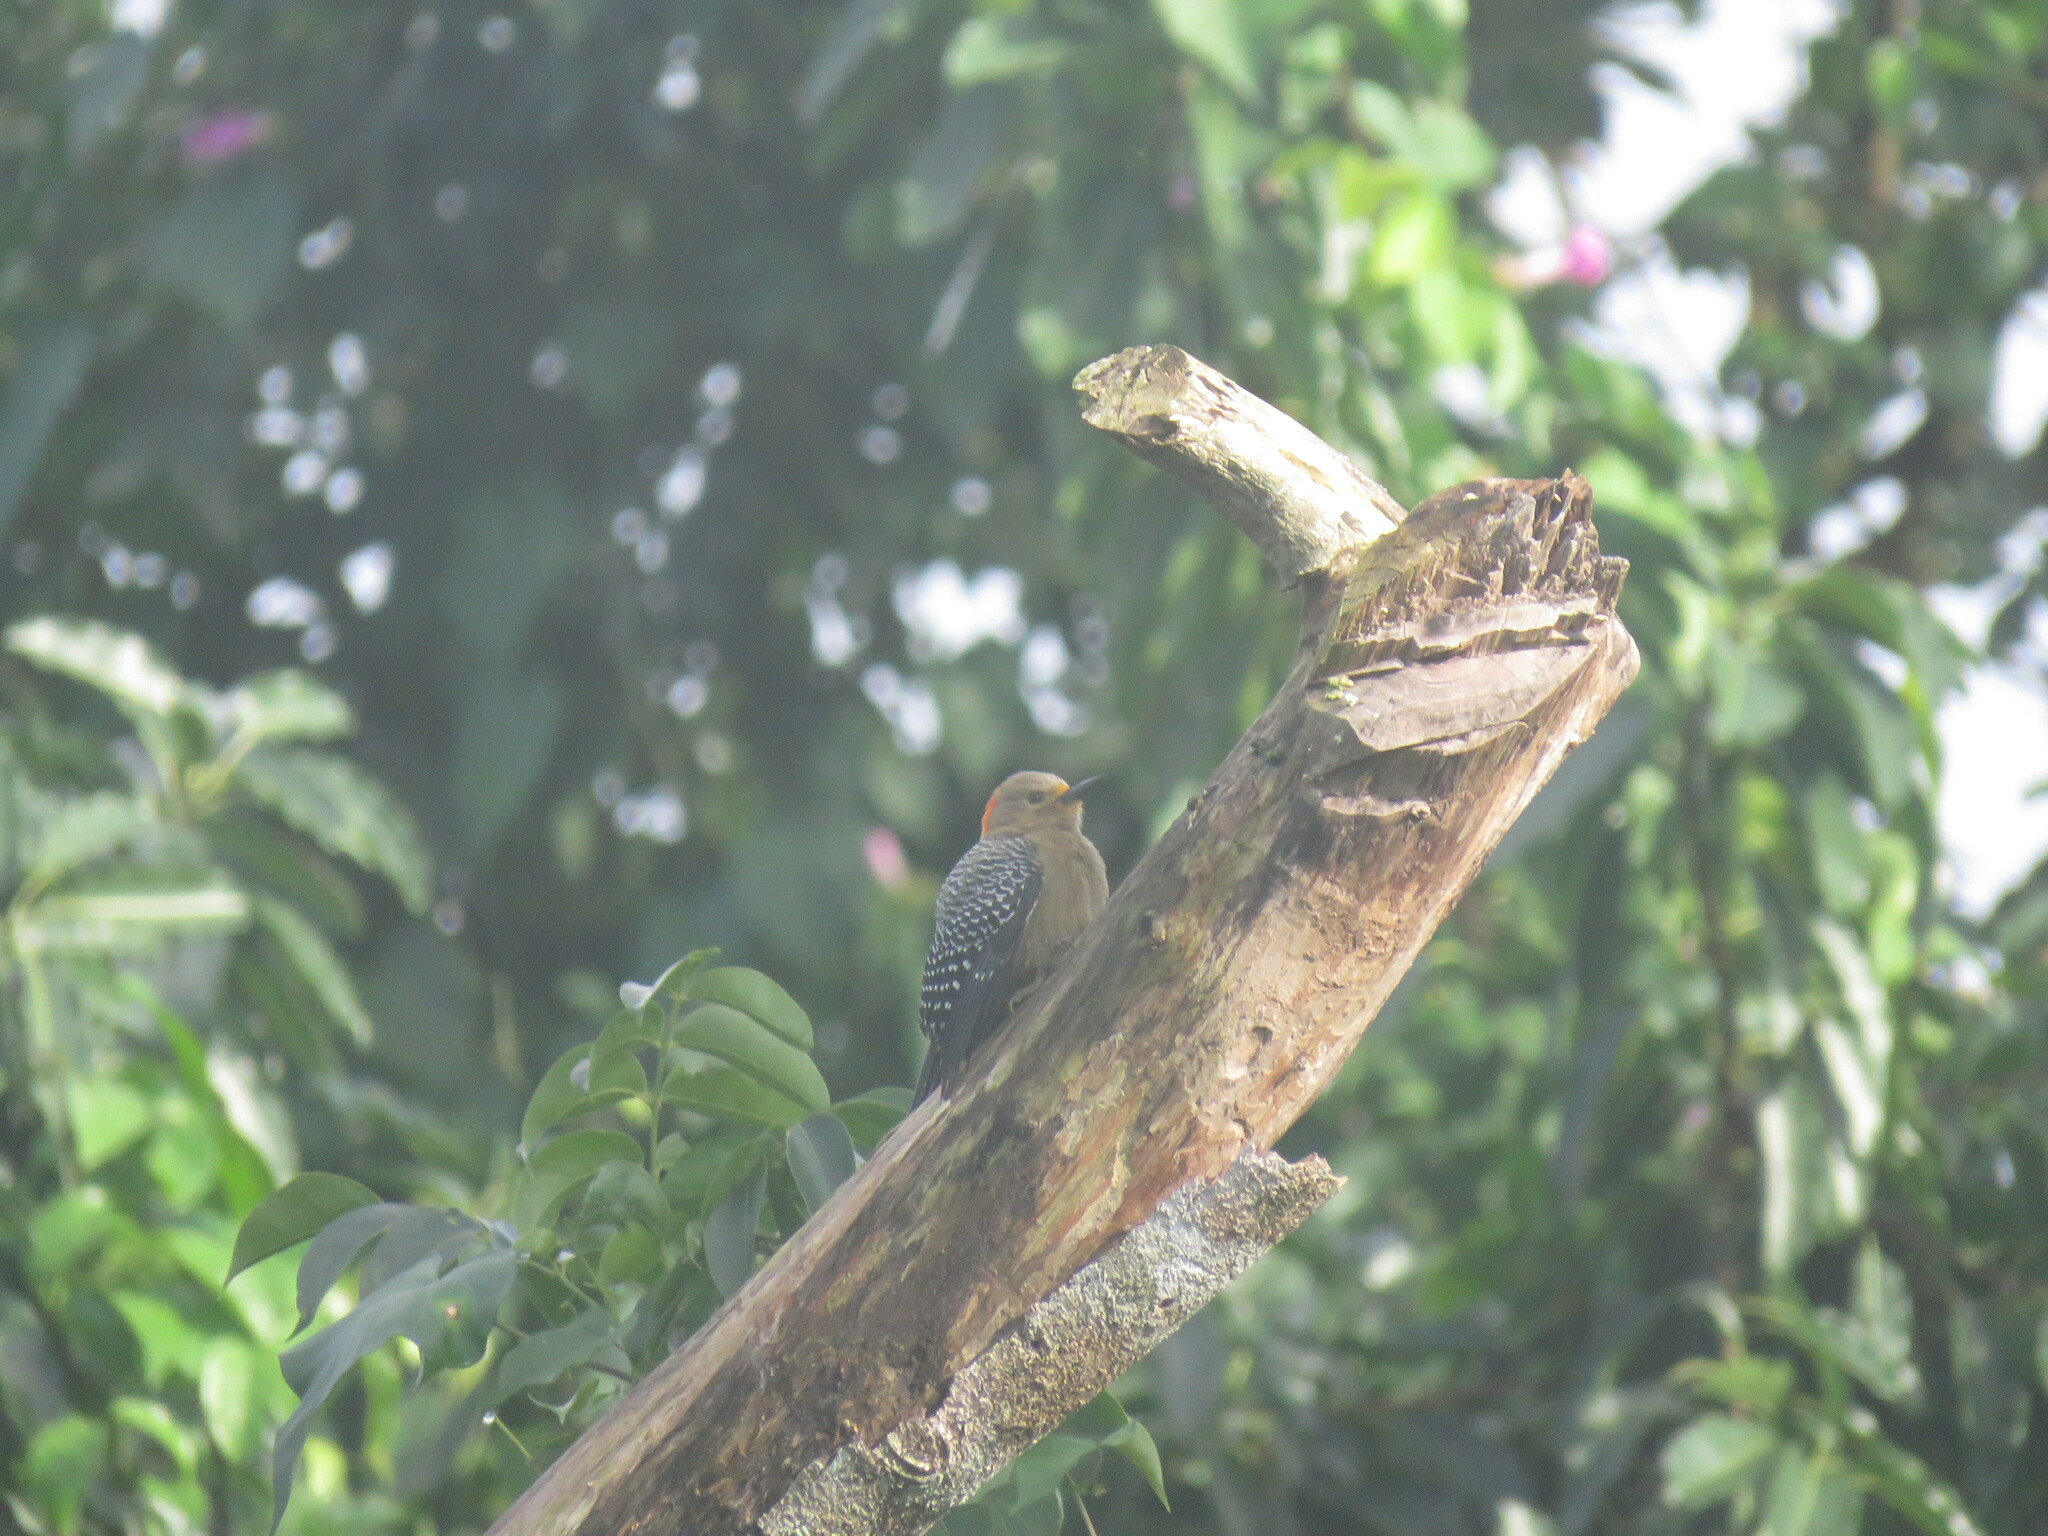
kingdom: Animalia
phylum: Chordata
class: Aves
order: Piciformes
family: Picidae
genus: Melanerpes
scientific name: Melanerpes pygmaeus
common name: Yucatan woodpecker
